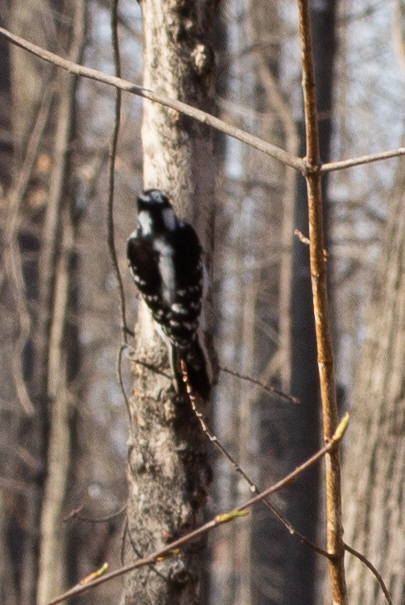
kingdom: Animalia
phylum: Chordata
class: Aves
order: Piciformes
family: Picidae
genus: Dryobates
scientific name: Dryobates pubescens
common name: Downy woodpecker
